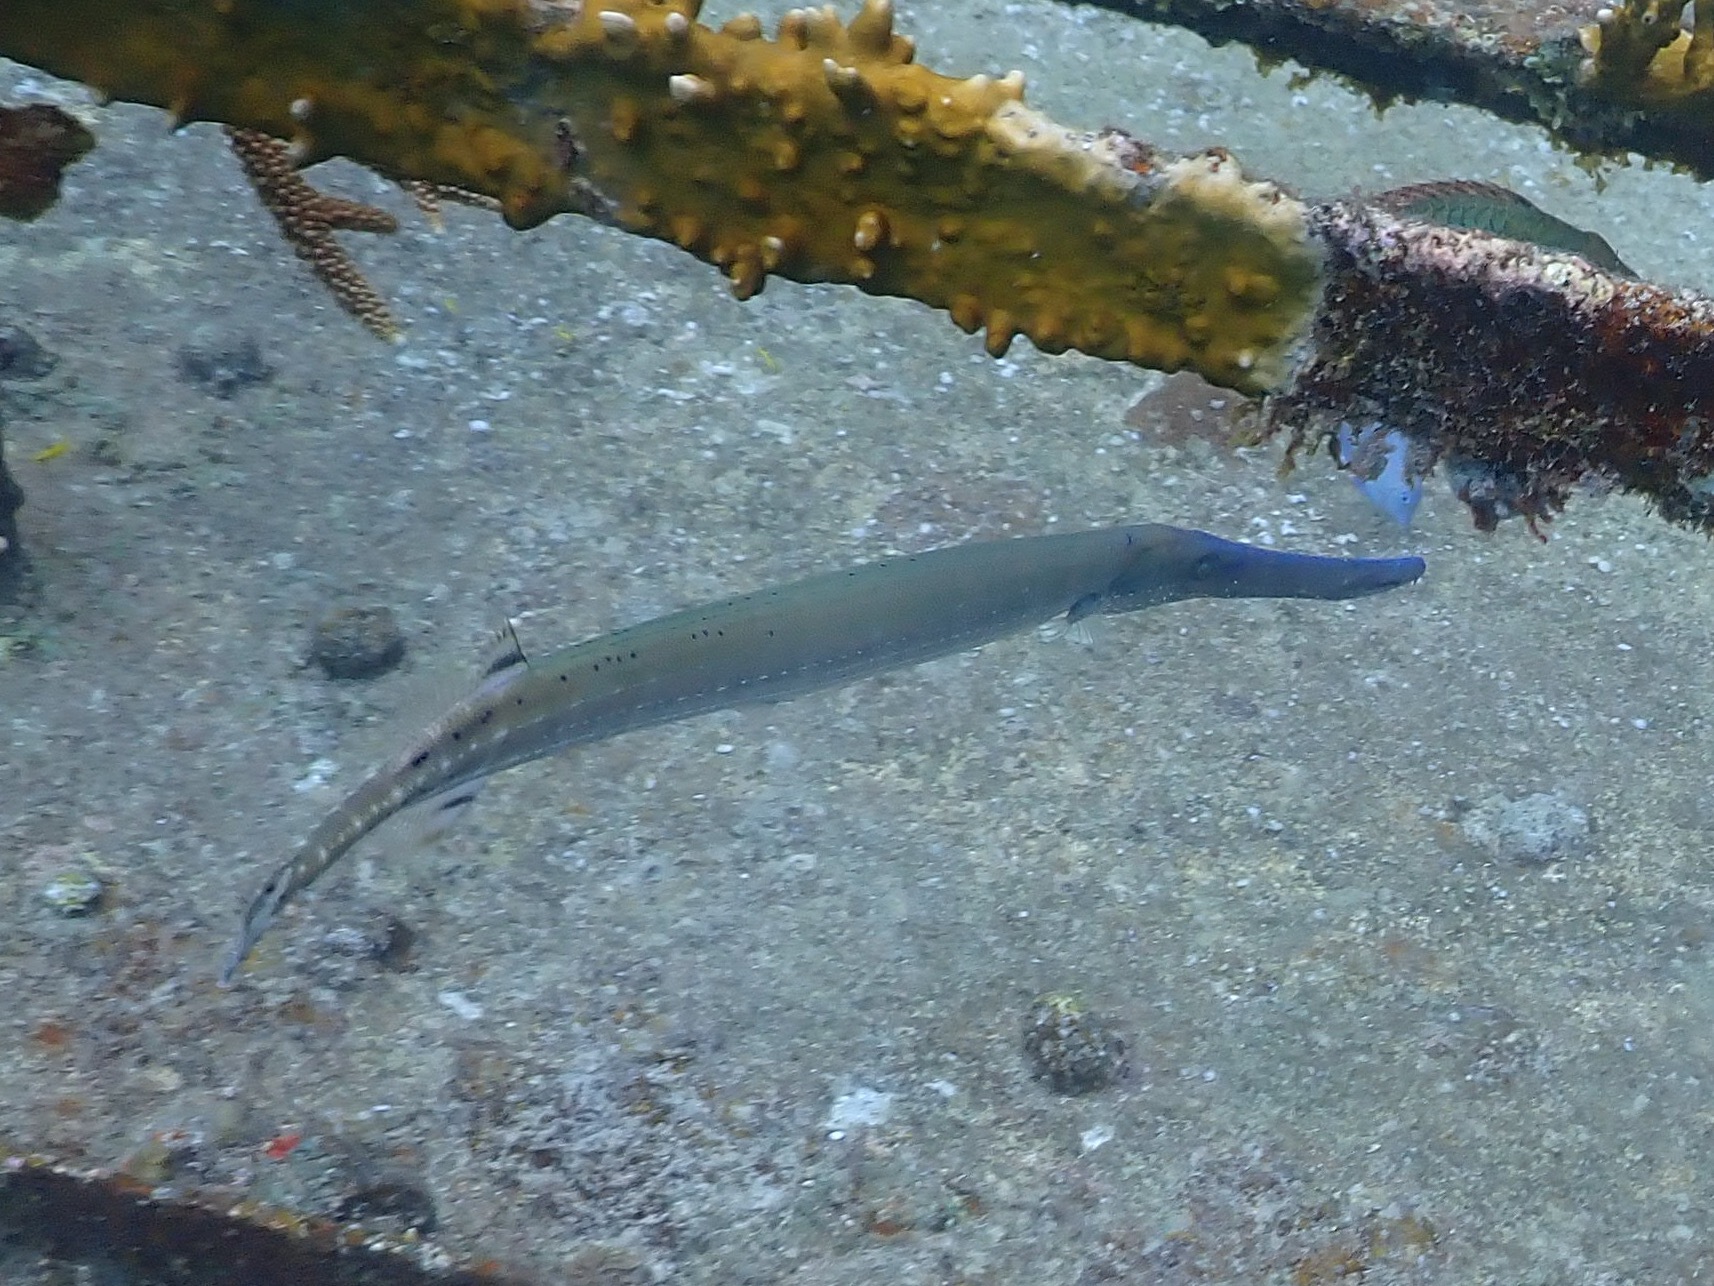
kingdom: Animalia
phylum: Chordata
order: Syngnathiformes
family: Aulostomidae
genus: Aulostomus
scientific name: Aulostomus maculatus
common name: West atlantic trumpetfish
